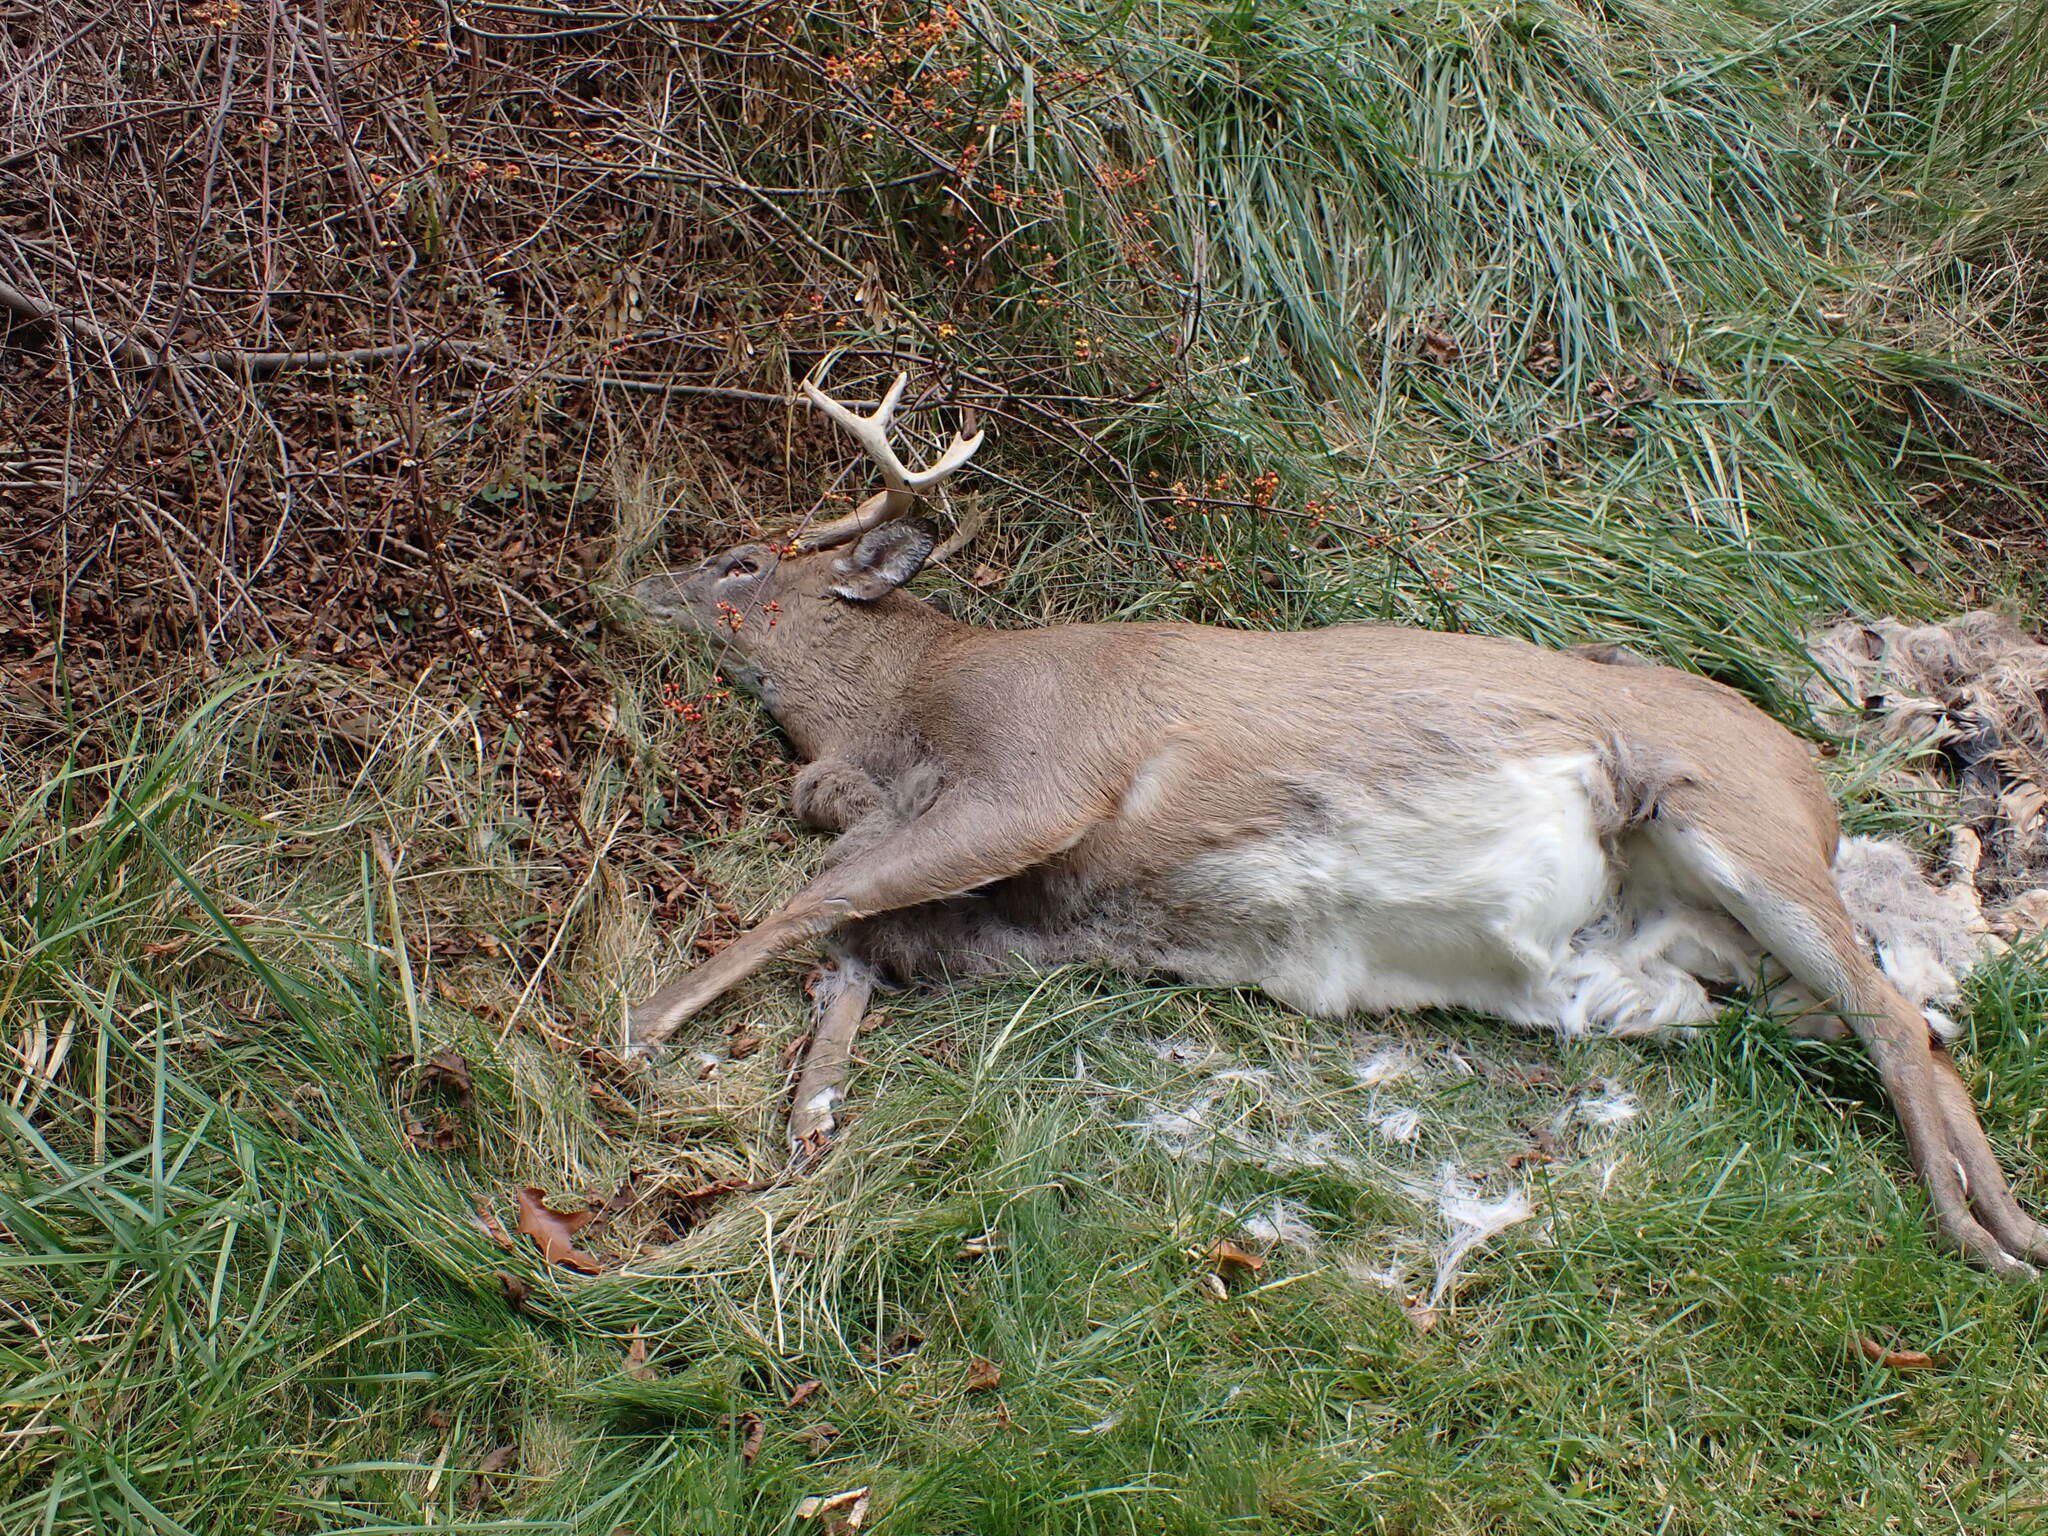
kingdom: Animalia
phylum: Chordata
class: Mammalia
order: Artiodactyla
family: Cervidae
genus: Odocoileus
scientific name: Odocoileus virginianus
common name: White-tailed deer
